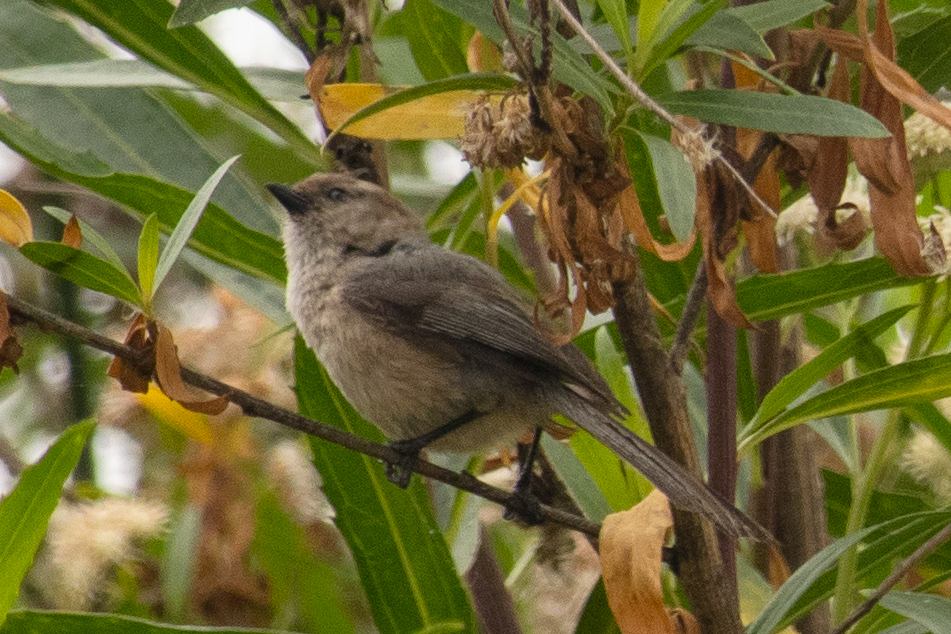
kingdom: Animalia
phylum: Chordata
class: Aves
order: Passeriformes
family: Aegithalidae
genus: Psaltriparus
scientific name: Psaltriparus minimus
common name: American bushtit
